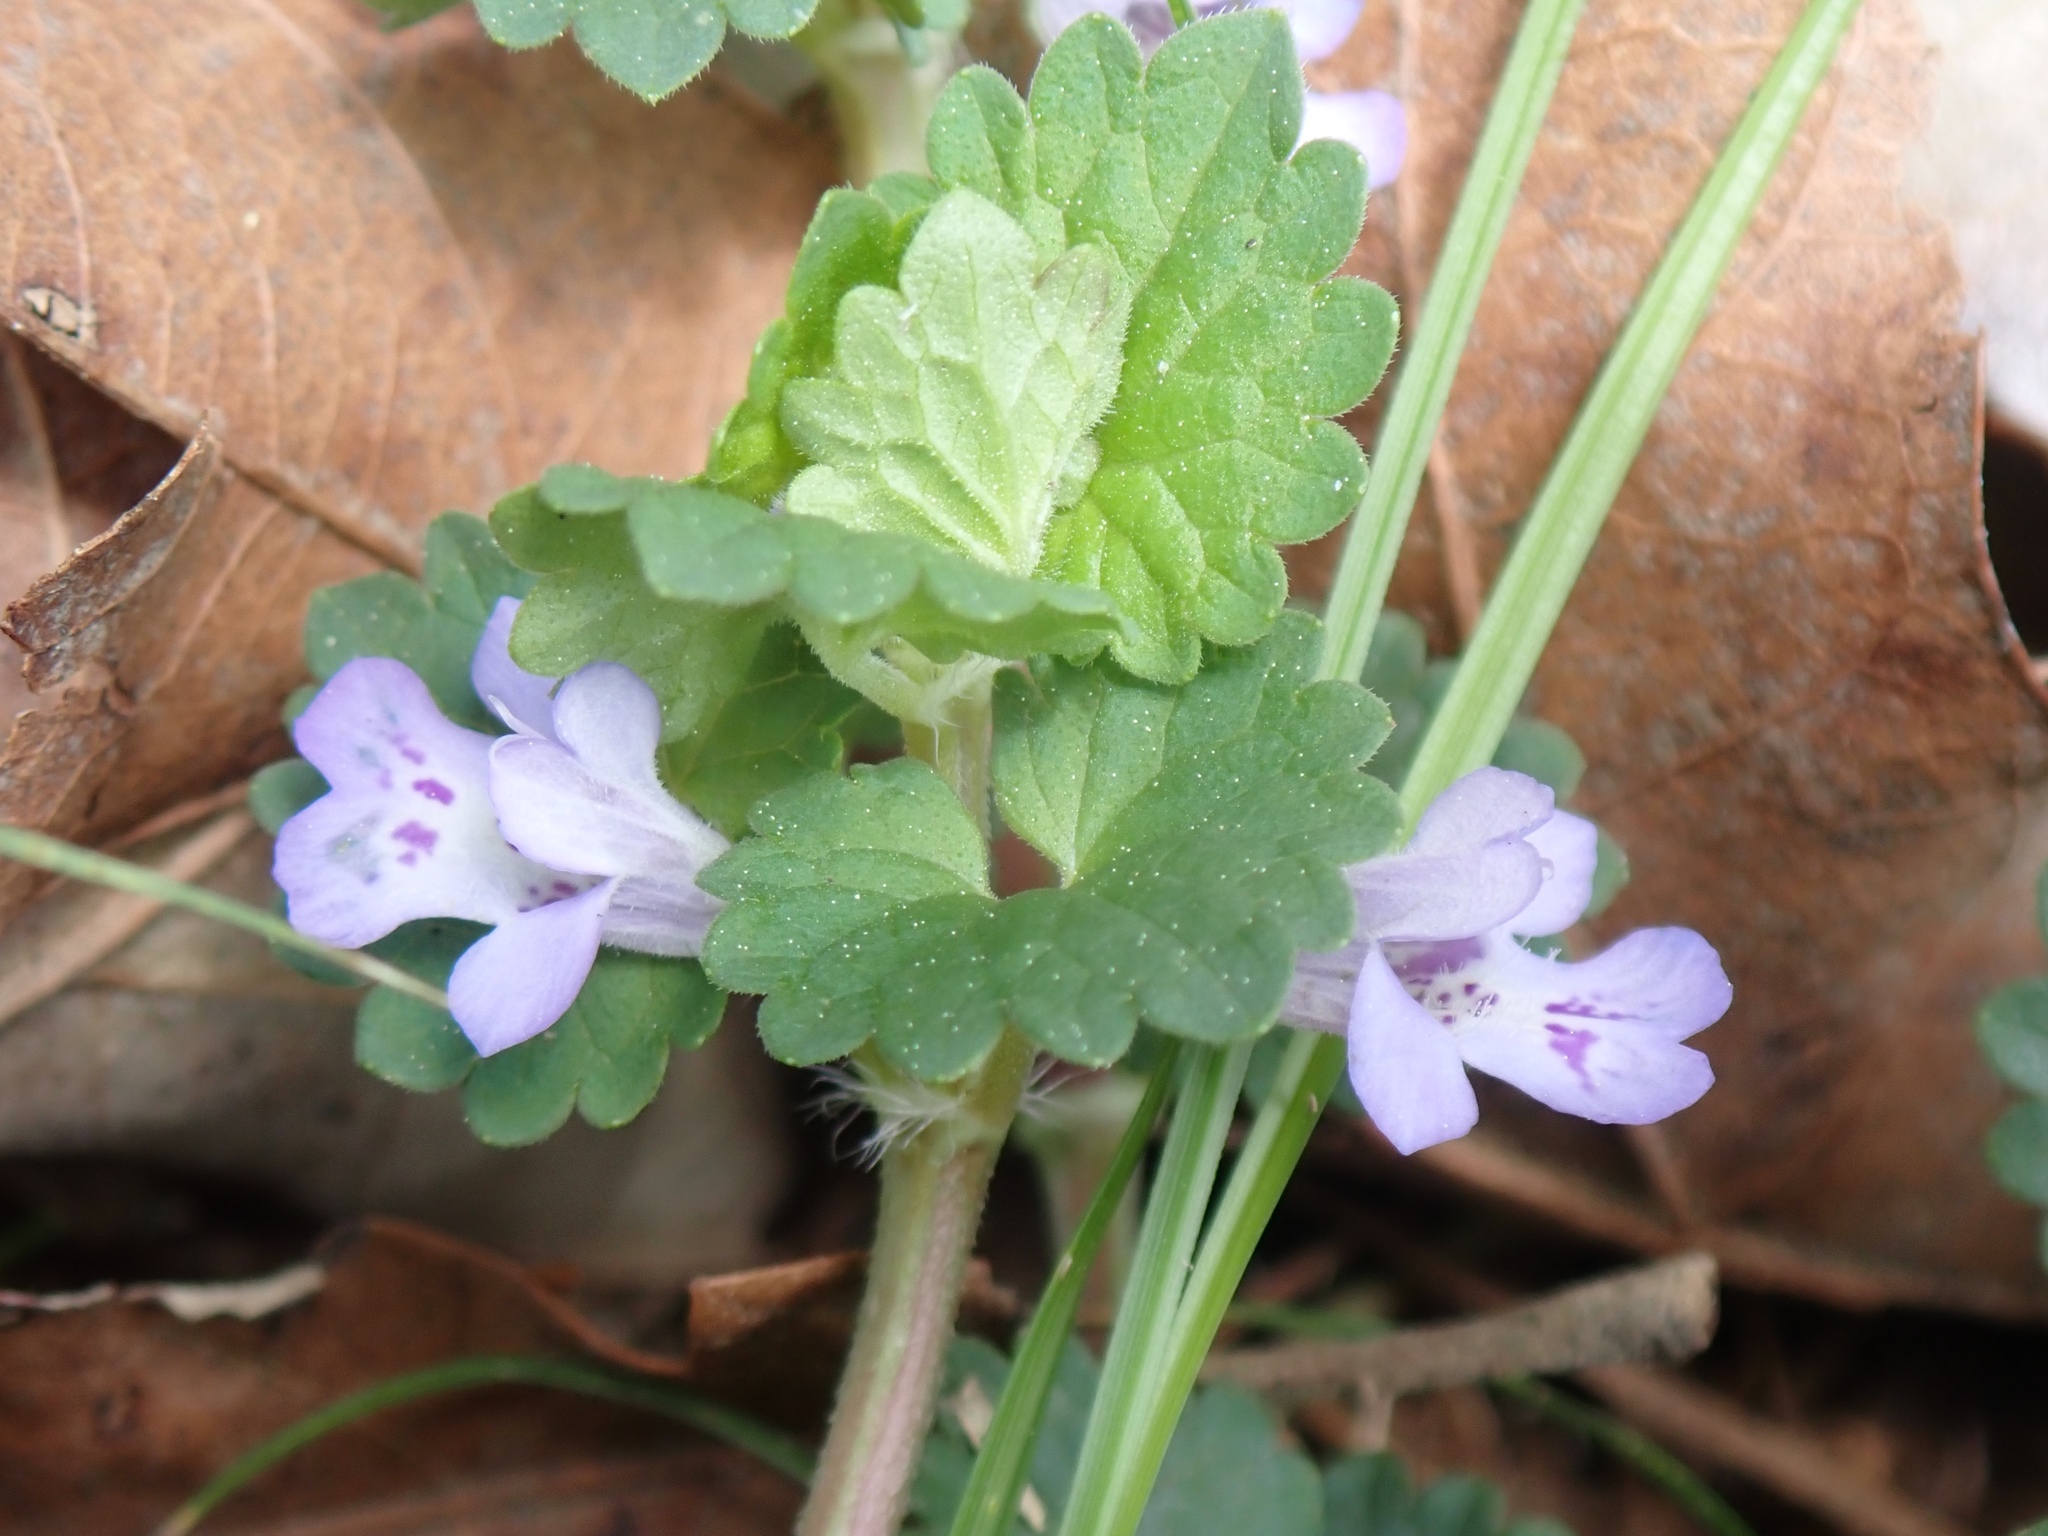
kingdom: Plantae
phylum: Tracheophyta
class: Magnoliopsida
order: Lamiales
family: Lamiaceae
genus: Glechoma
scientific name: Glechoma hederacea
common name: Ground ivy
